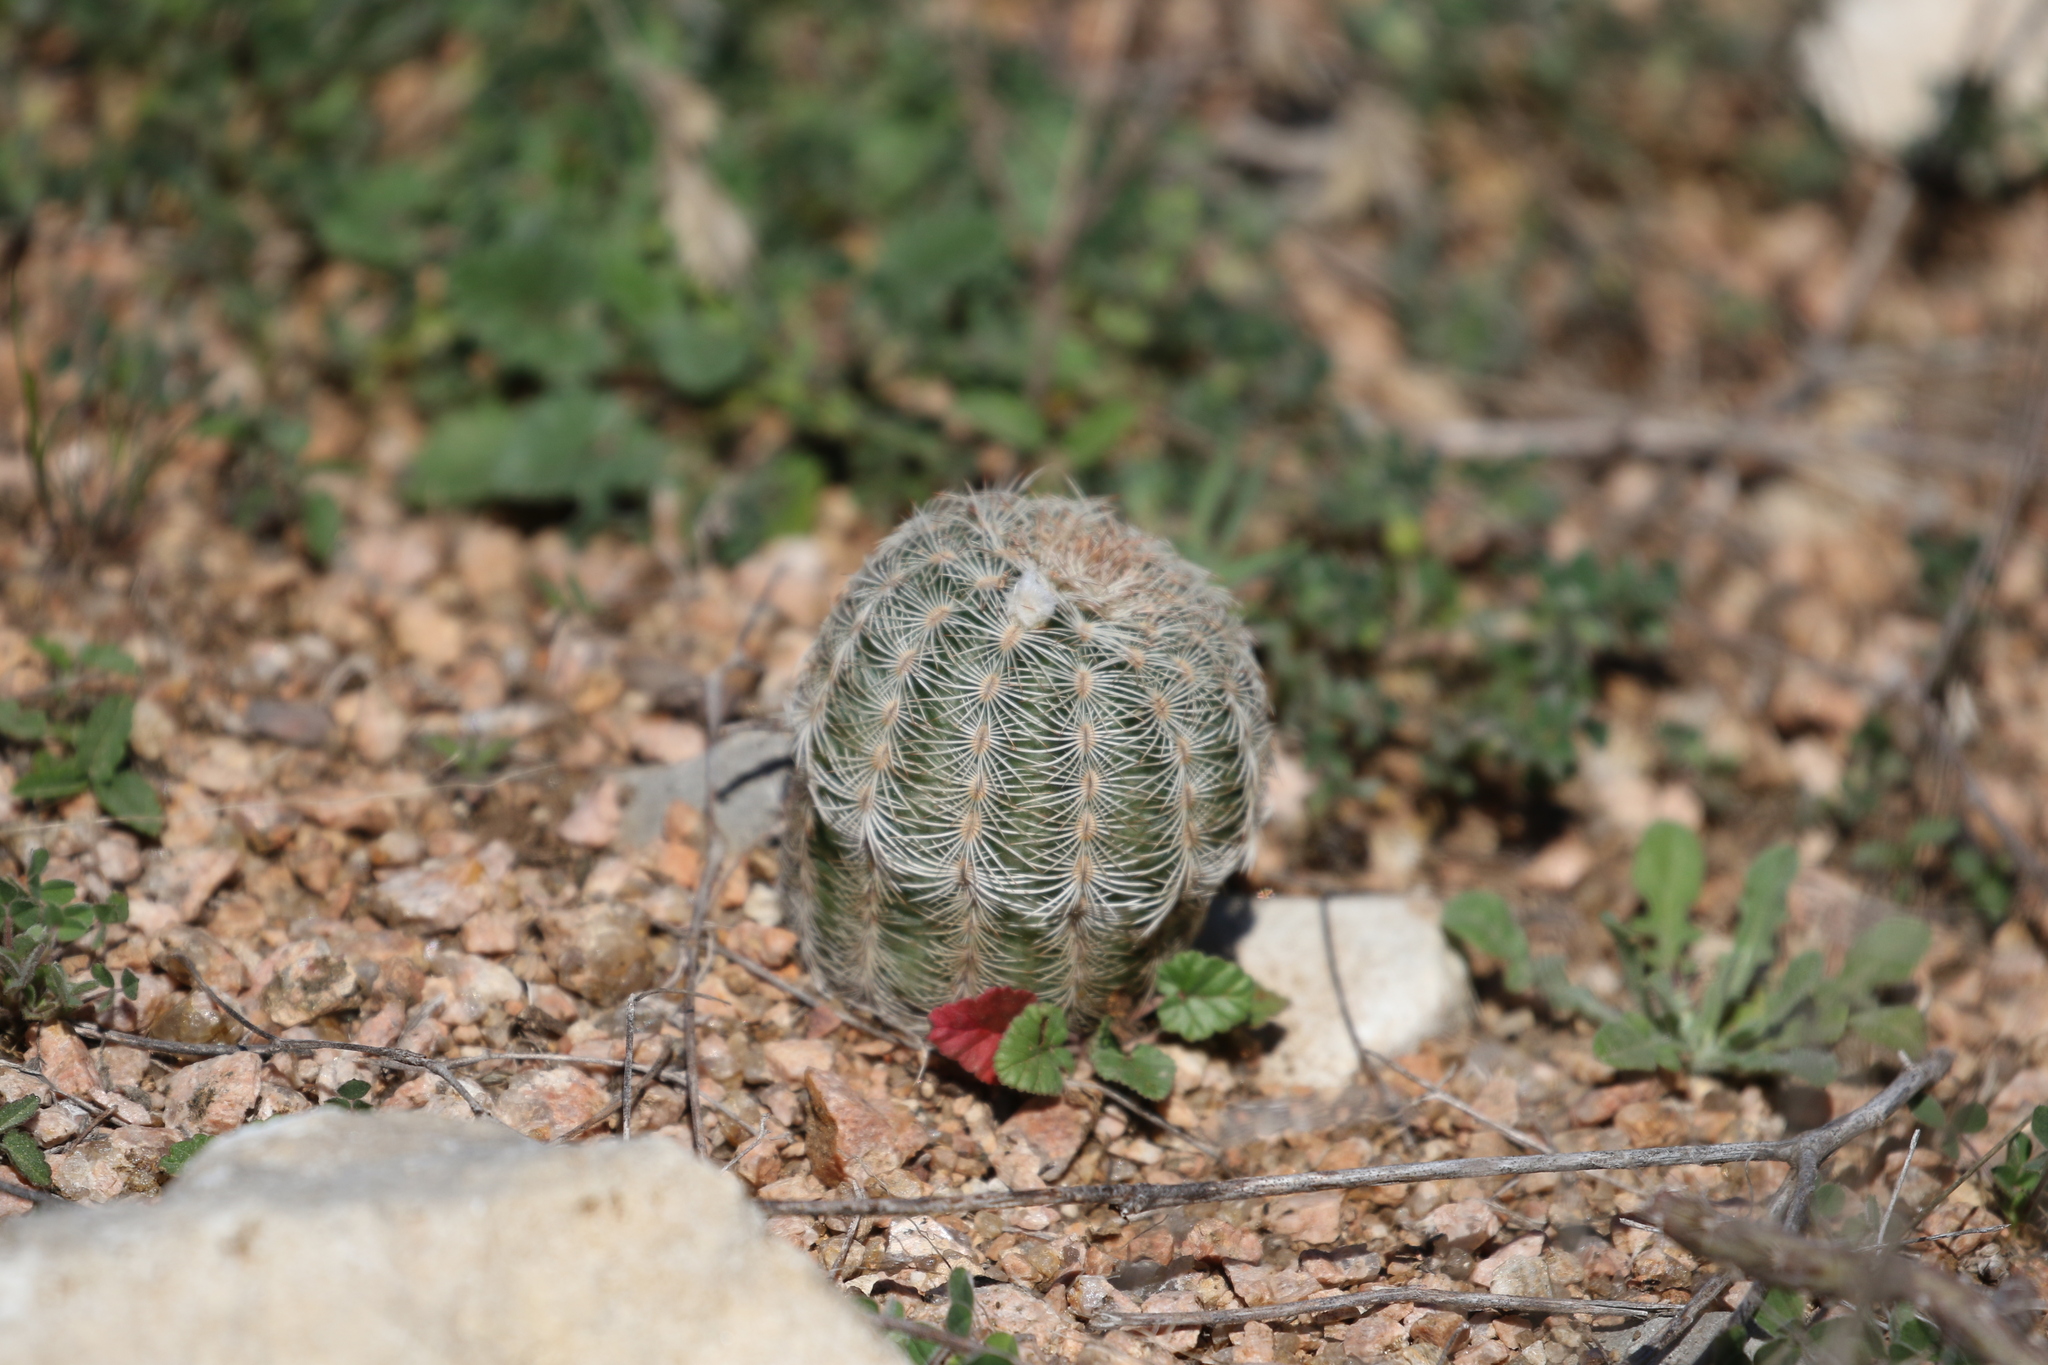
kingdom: Plantae
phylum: Tracheophyta
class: Magnoliopsida
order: Caryophyllales
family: Cactaceae
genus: Echinocereus
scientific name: Echinocereus reichenbachii
